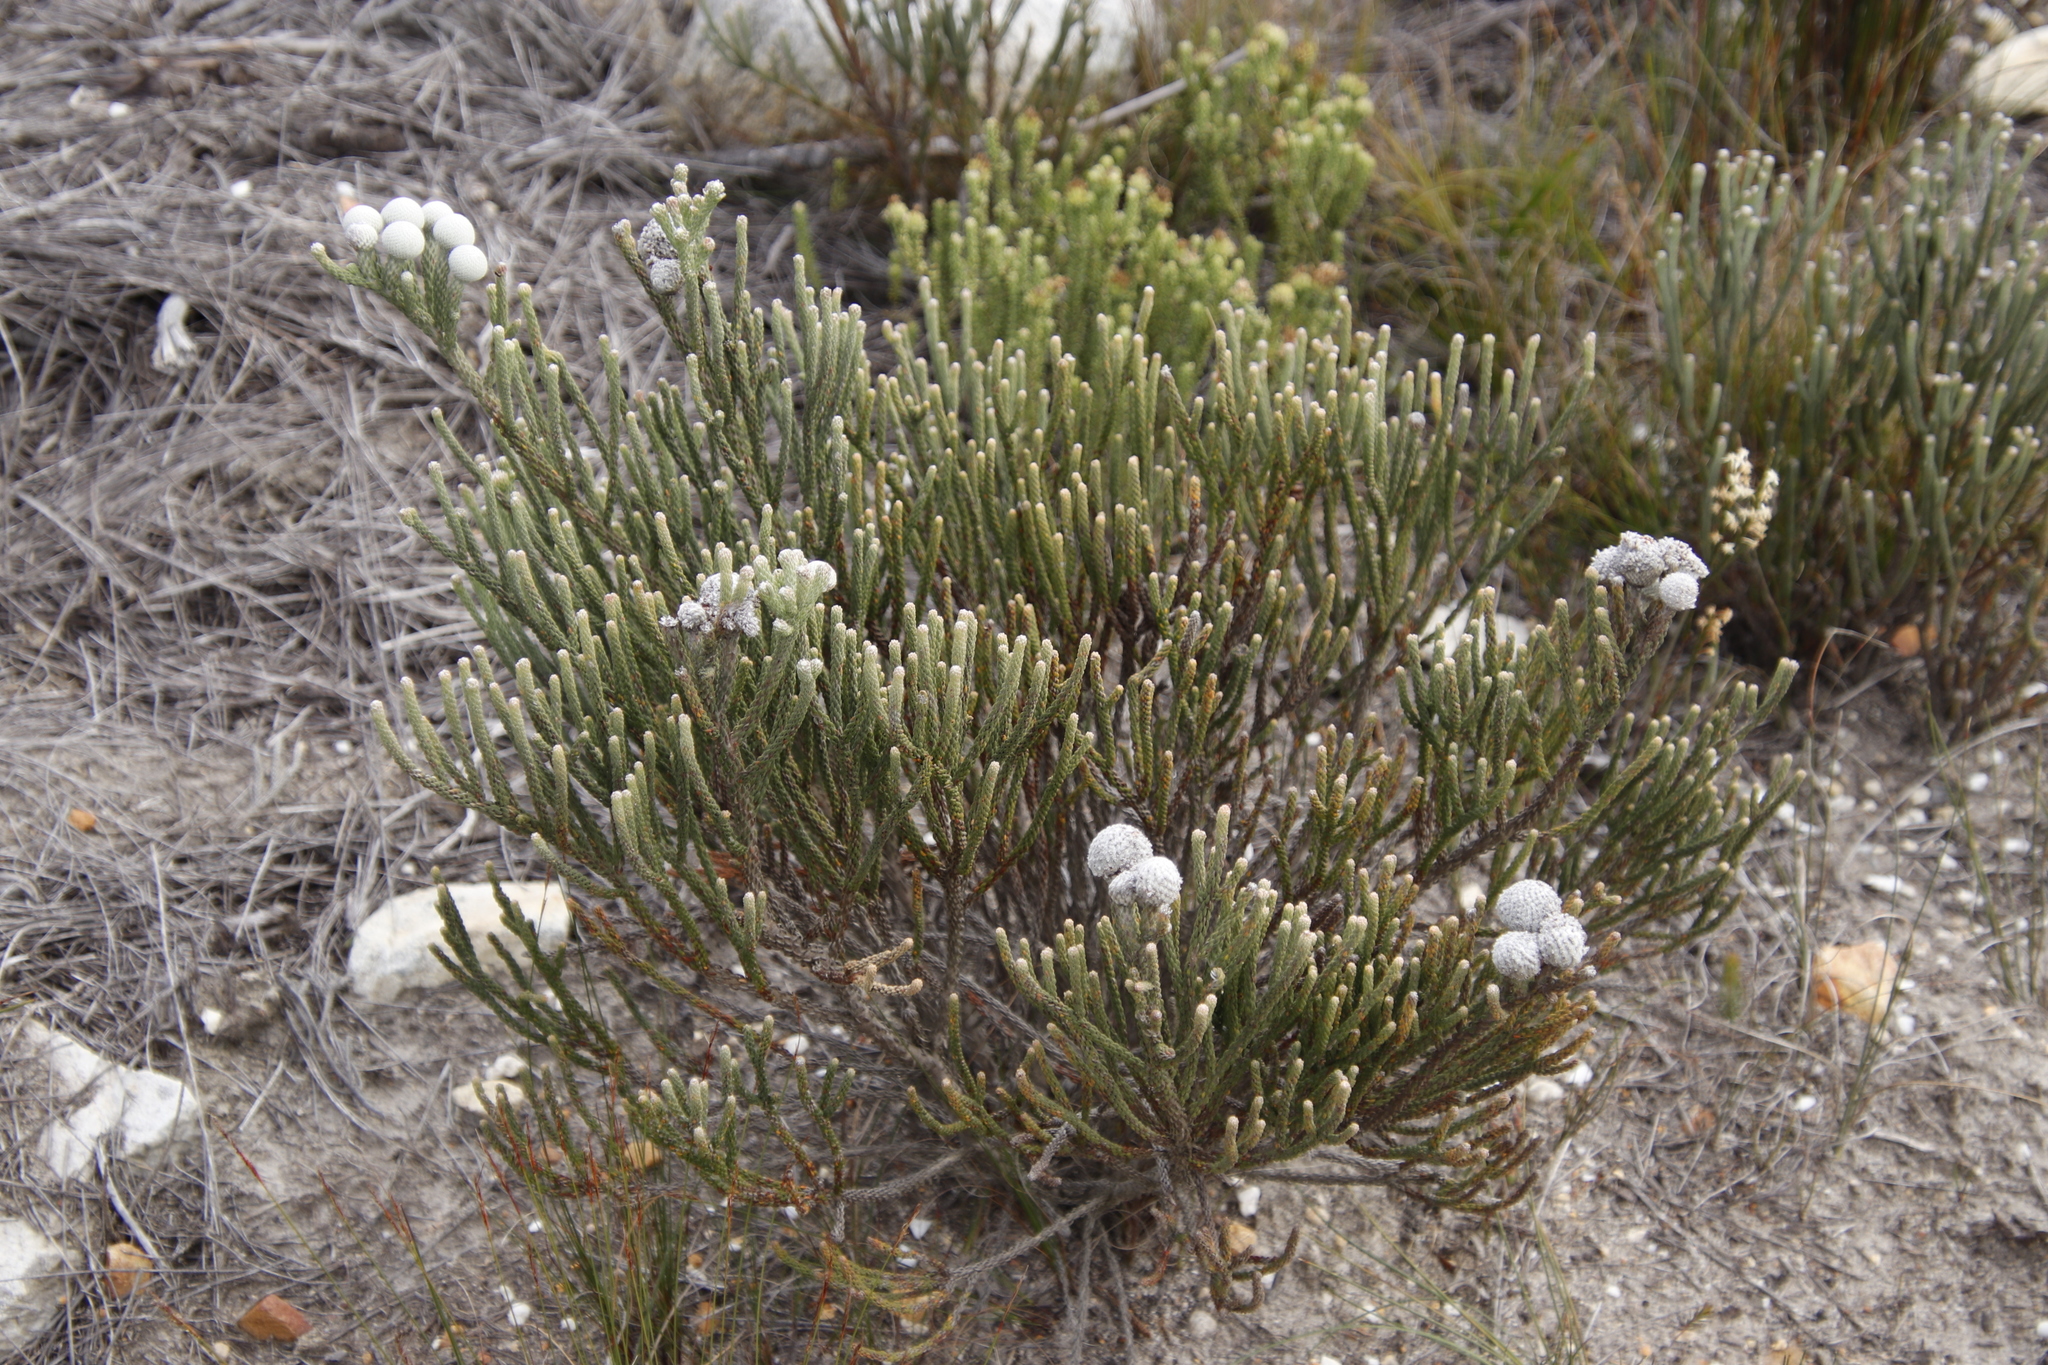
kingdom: Plantae
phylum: Tracheophyta
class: Magnoliopsida
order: Bruniales
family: Bruniaceae
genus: Brunia
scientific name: Brunia laevis
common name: Silver brunia
